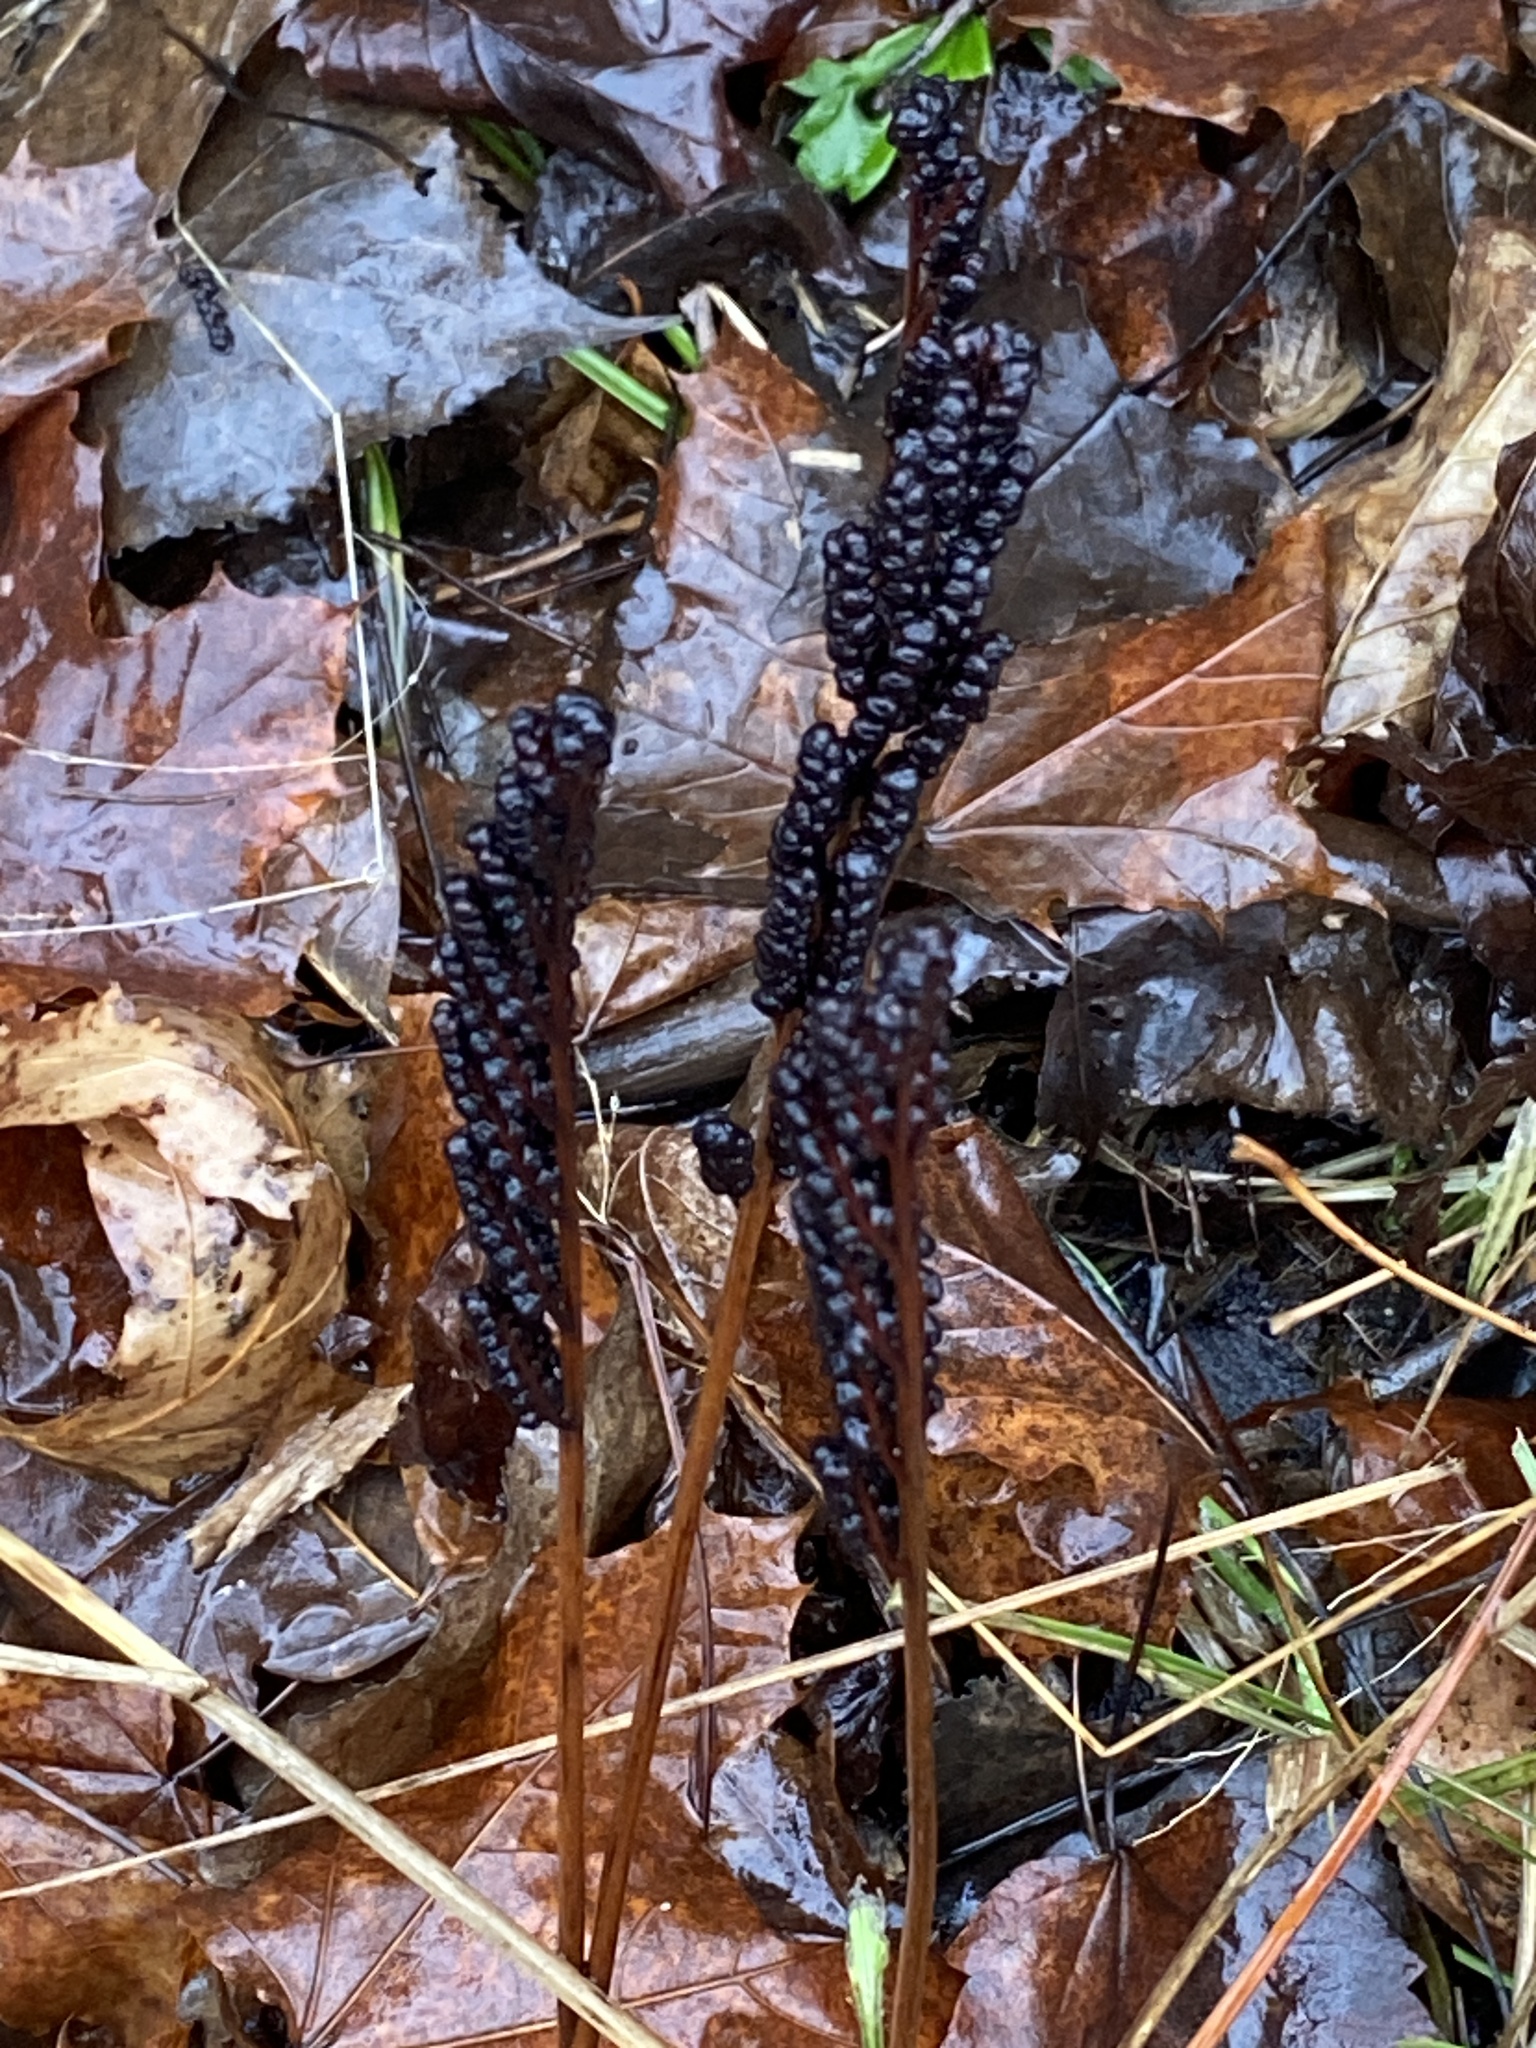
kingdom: Plantae
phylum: Tracheophyta
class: Polypodiopsida
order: Polypodiales
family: Onocleaceae
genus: Onoclea
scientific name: Onoclea sensibilis
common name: Sensitive fern
